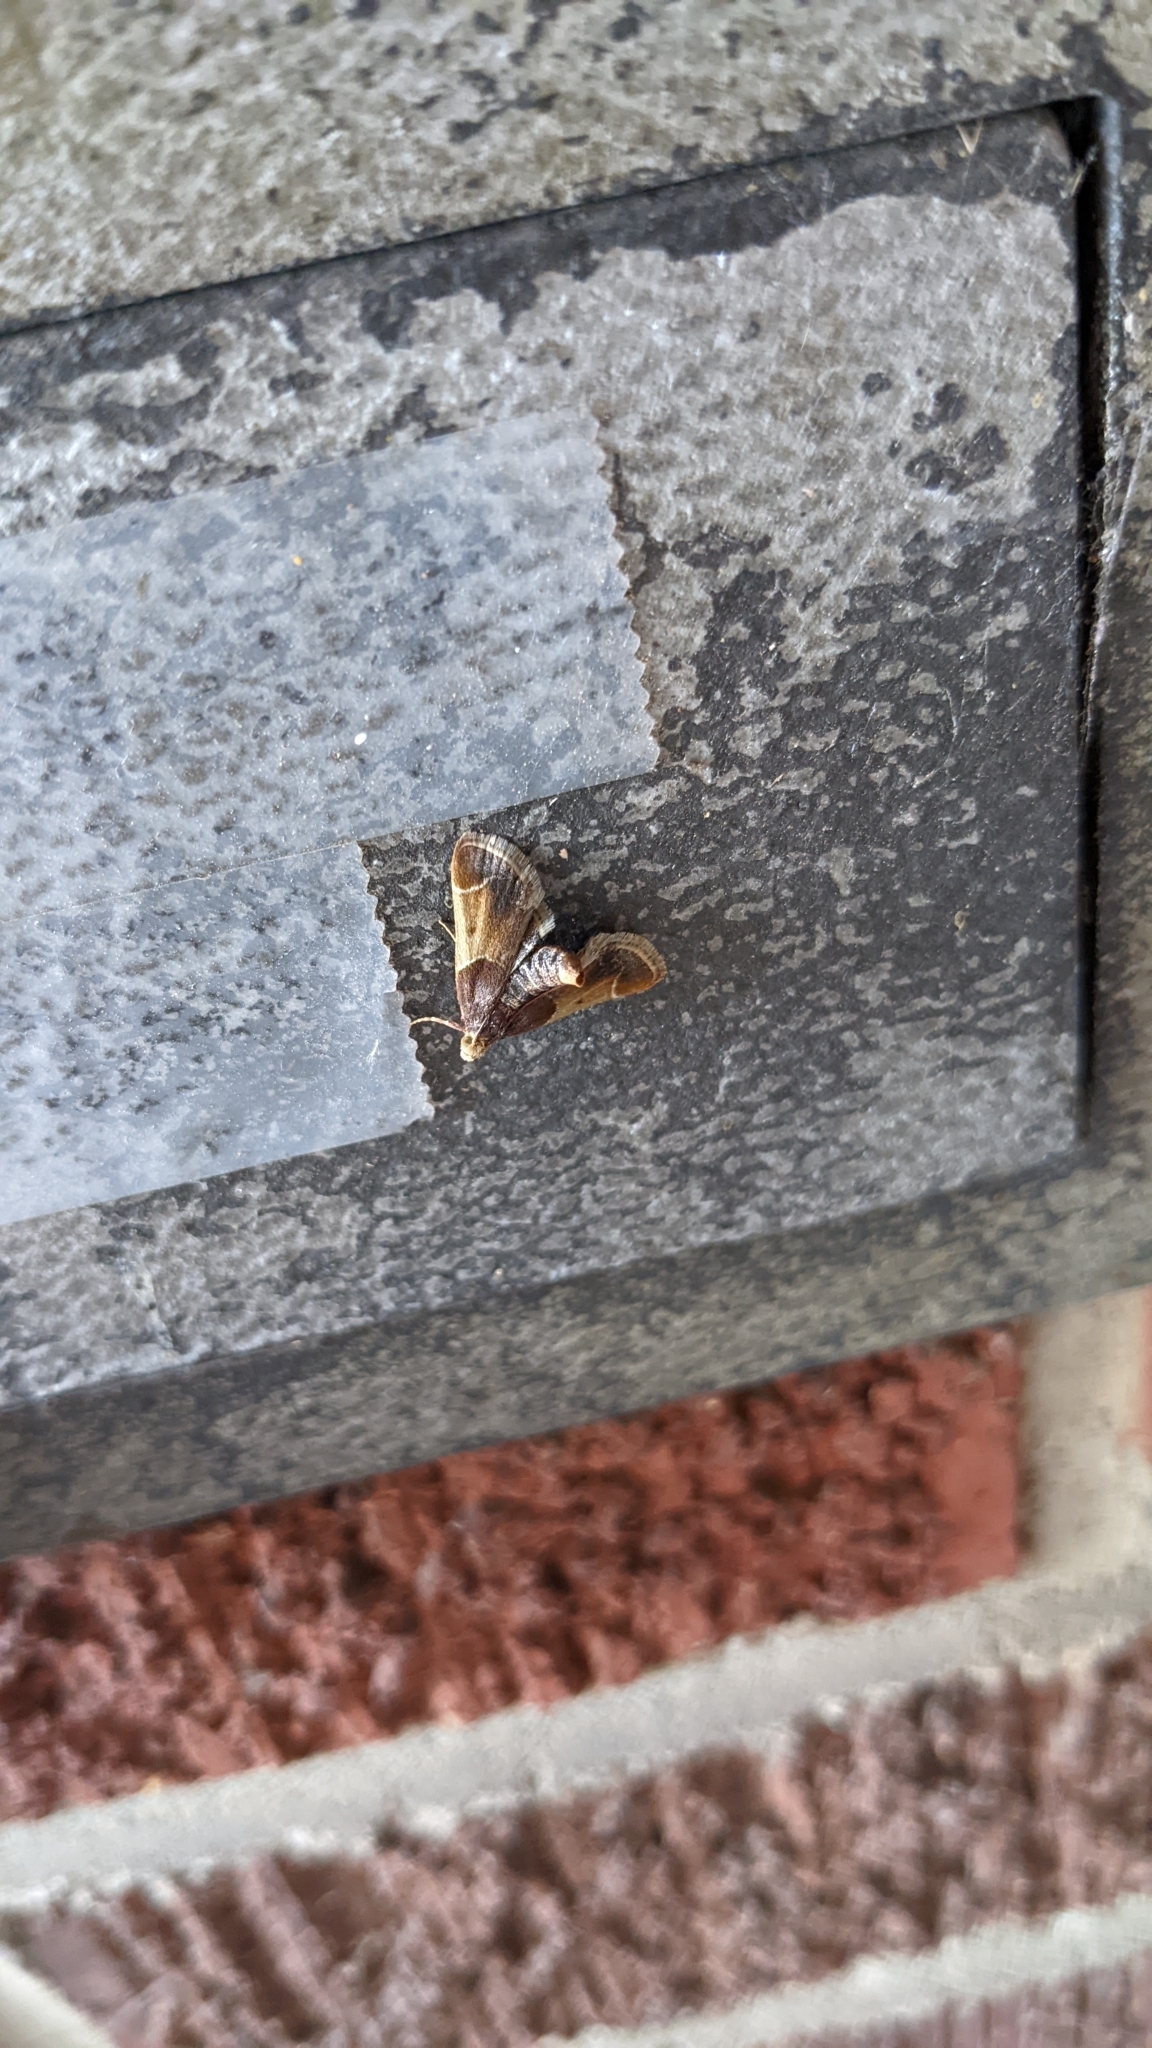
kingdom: Animalia
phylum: Arthropoda
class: Insecta
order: Lepidoptera
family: Pyralidae
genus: Pyralis
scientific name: Pyralis farinalis
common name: Meal moth
